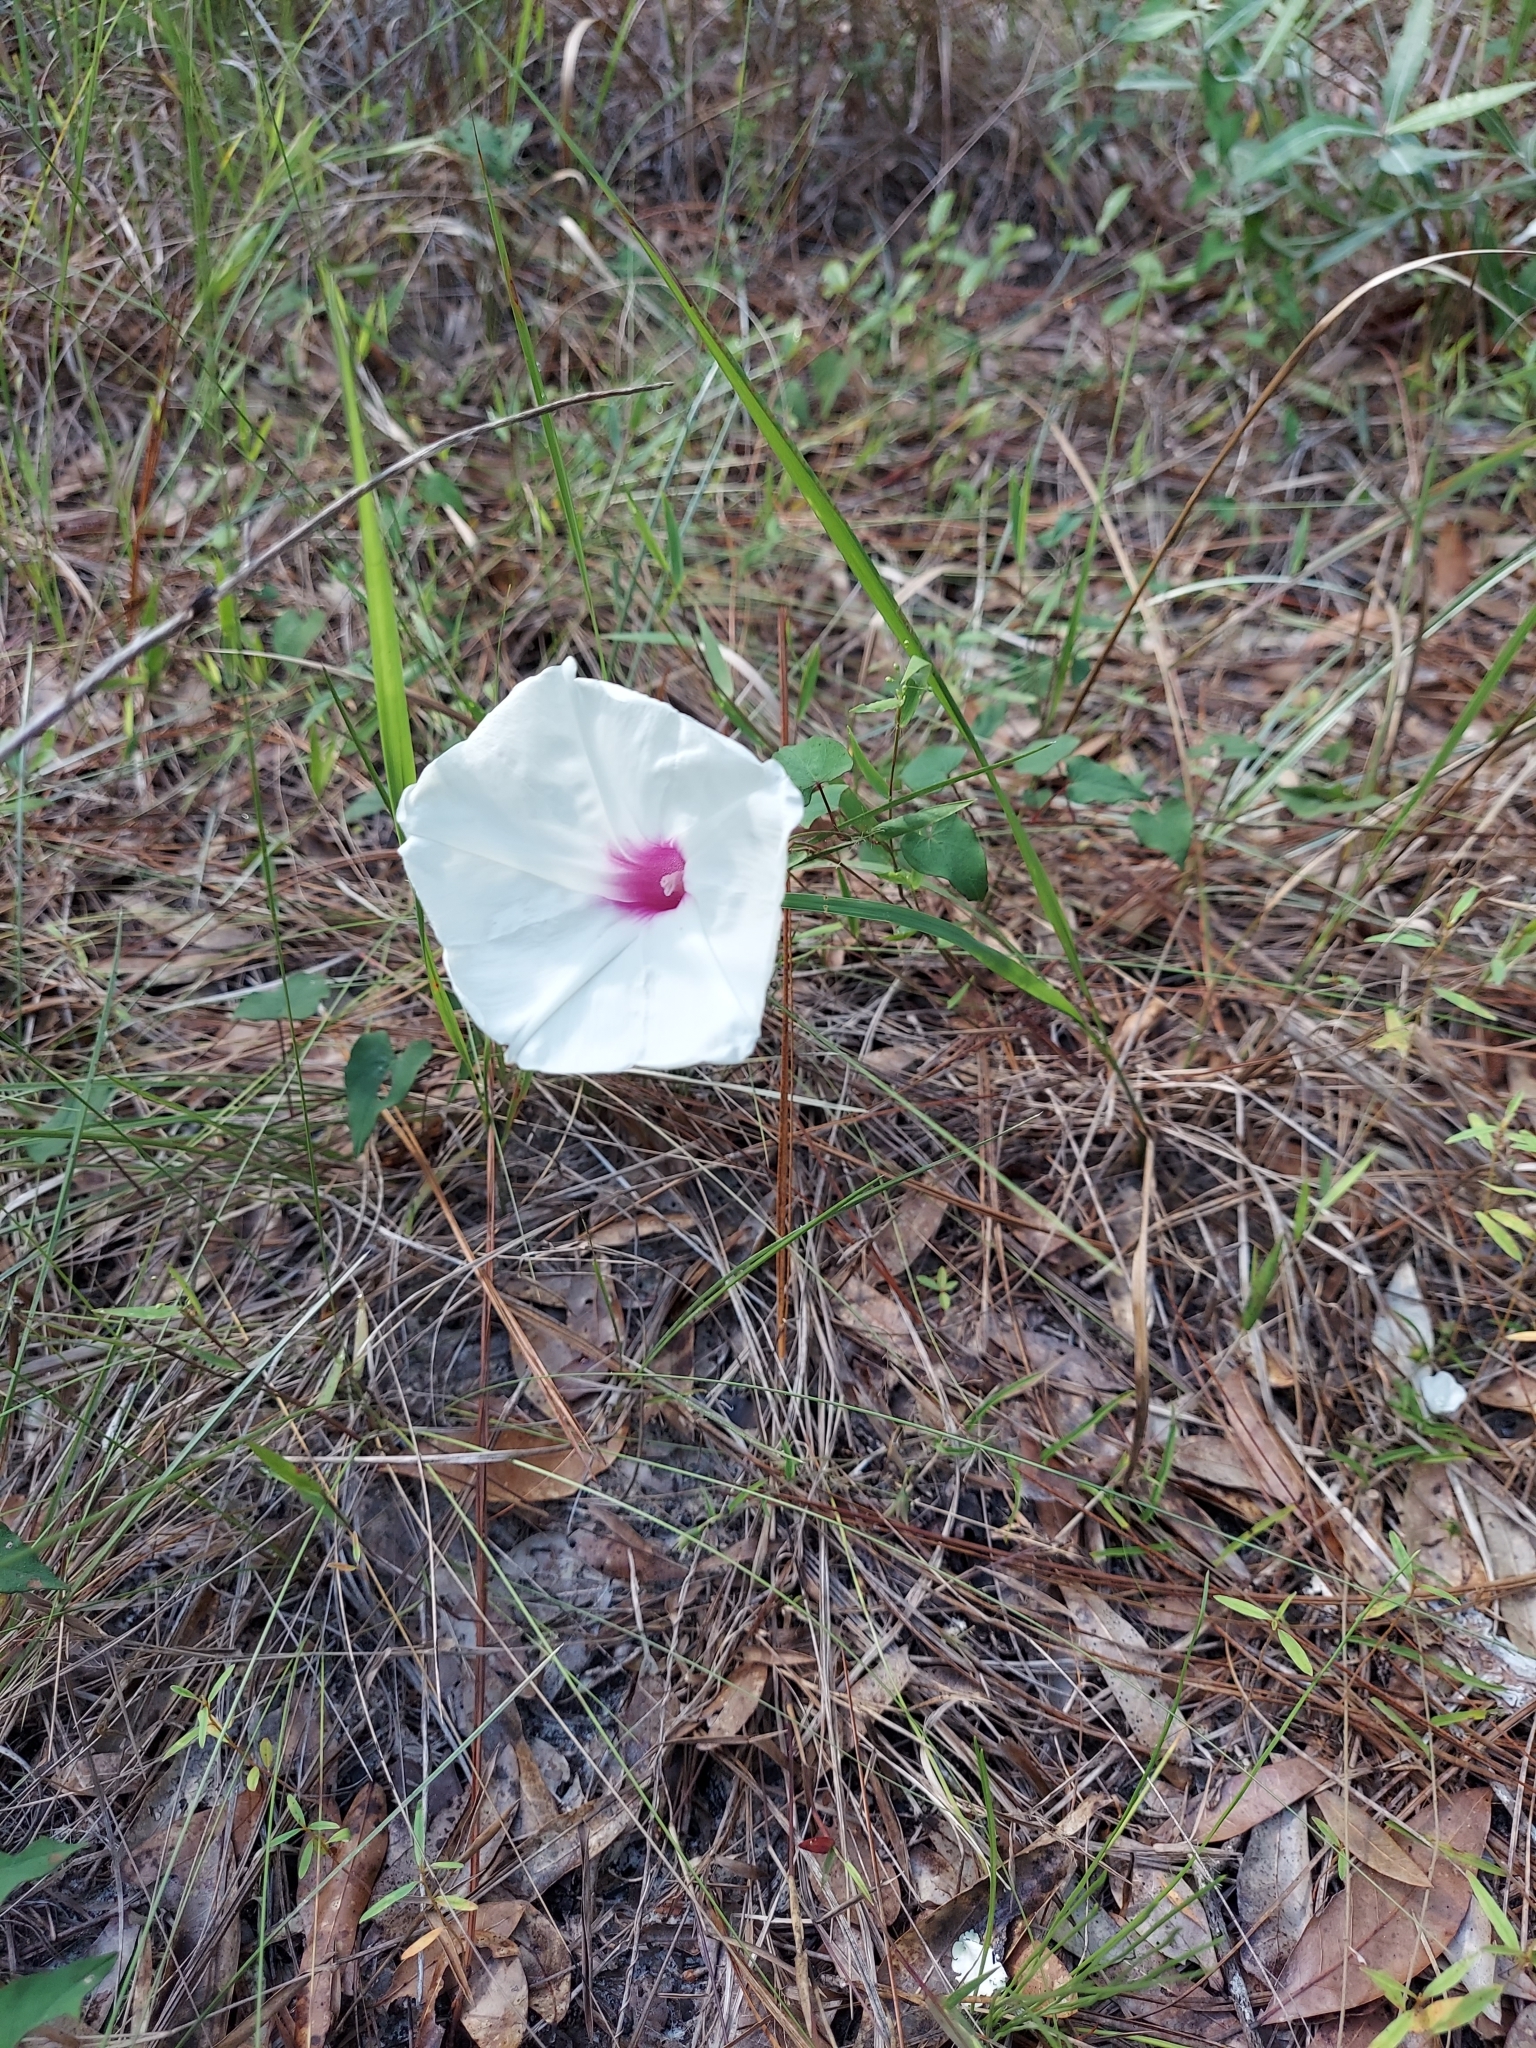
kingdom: Plantae
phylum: Tracheophyta
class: Magnoliopsida
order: Solanales
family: Convolvulaceae
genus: Ipomoea
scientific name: Ipomoea pandurata
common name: Man-of-the-earth
